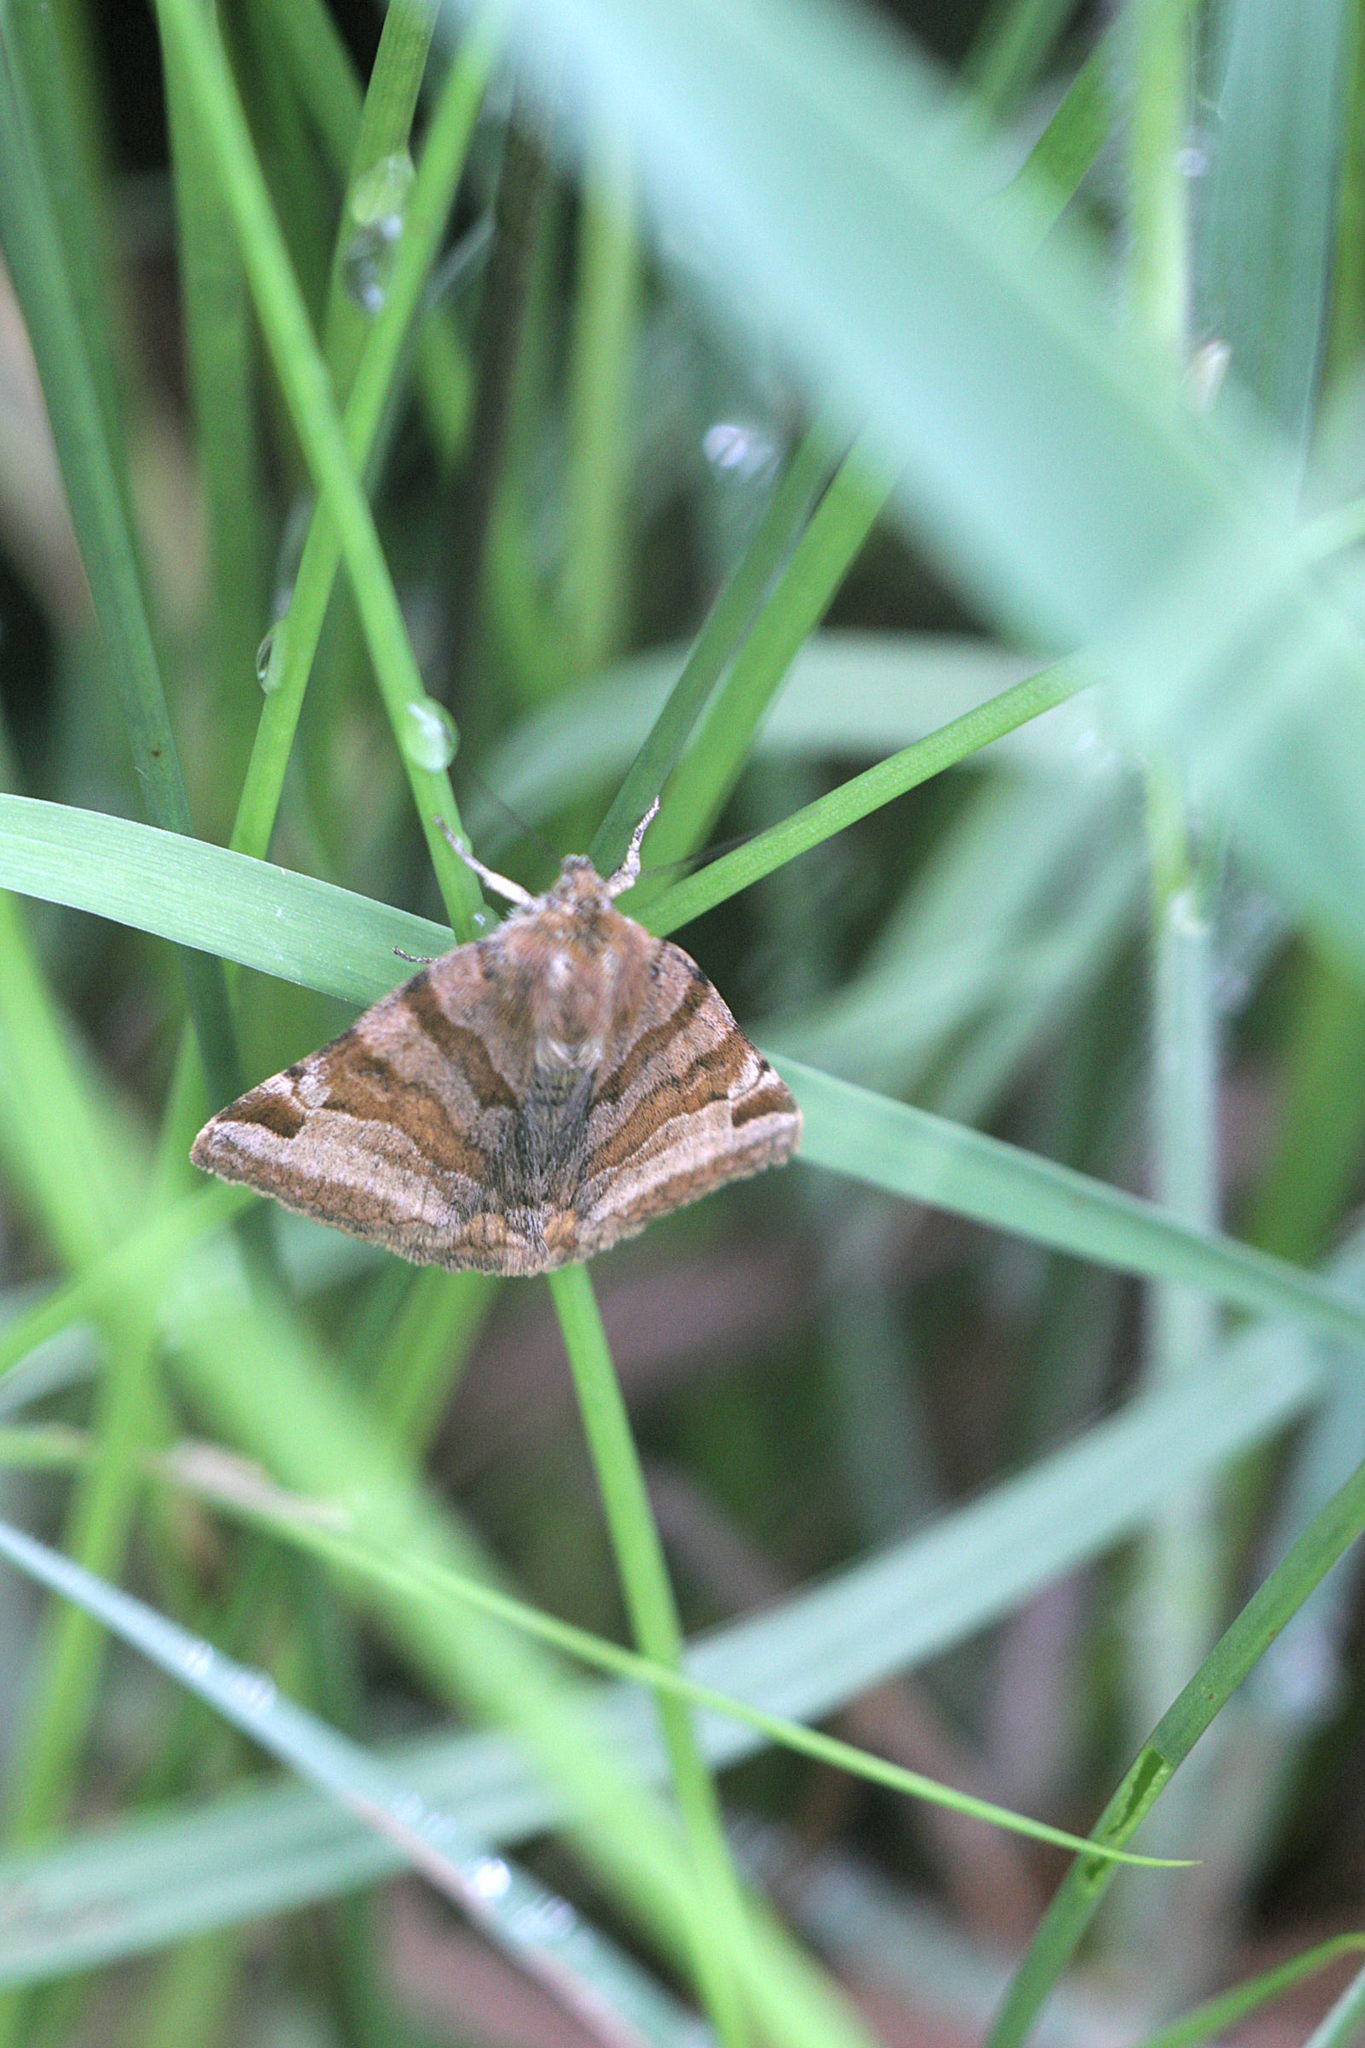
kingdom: Animalia
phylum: Arthropoda
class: Insecta
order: Lepidoptera
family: Erebidae
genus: Euclidia
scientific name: Euclidia glyphica
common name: Burnet companion
